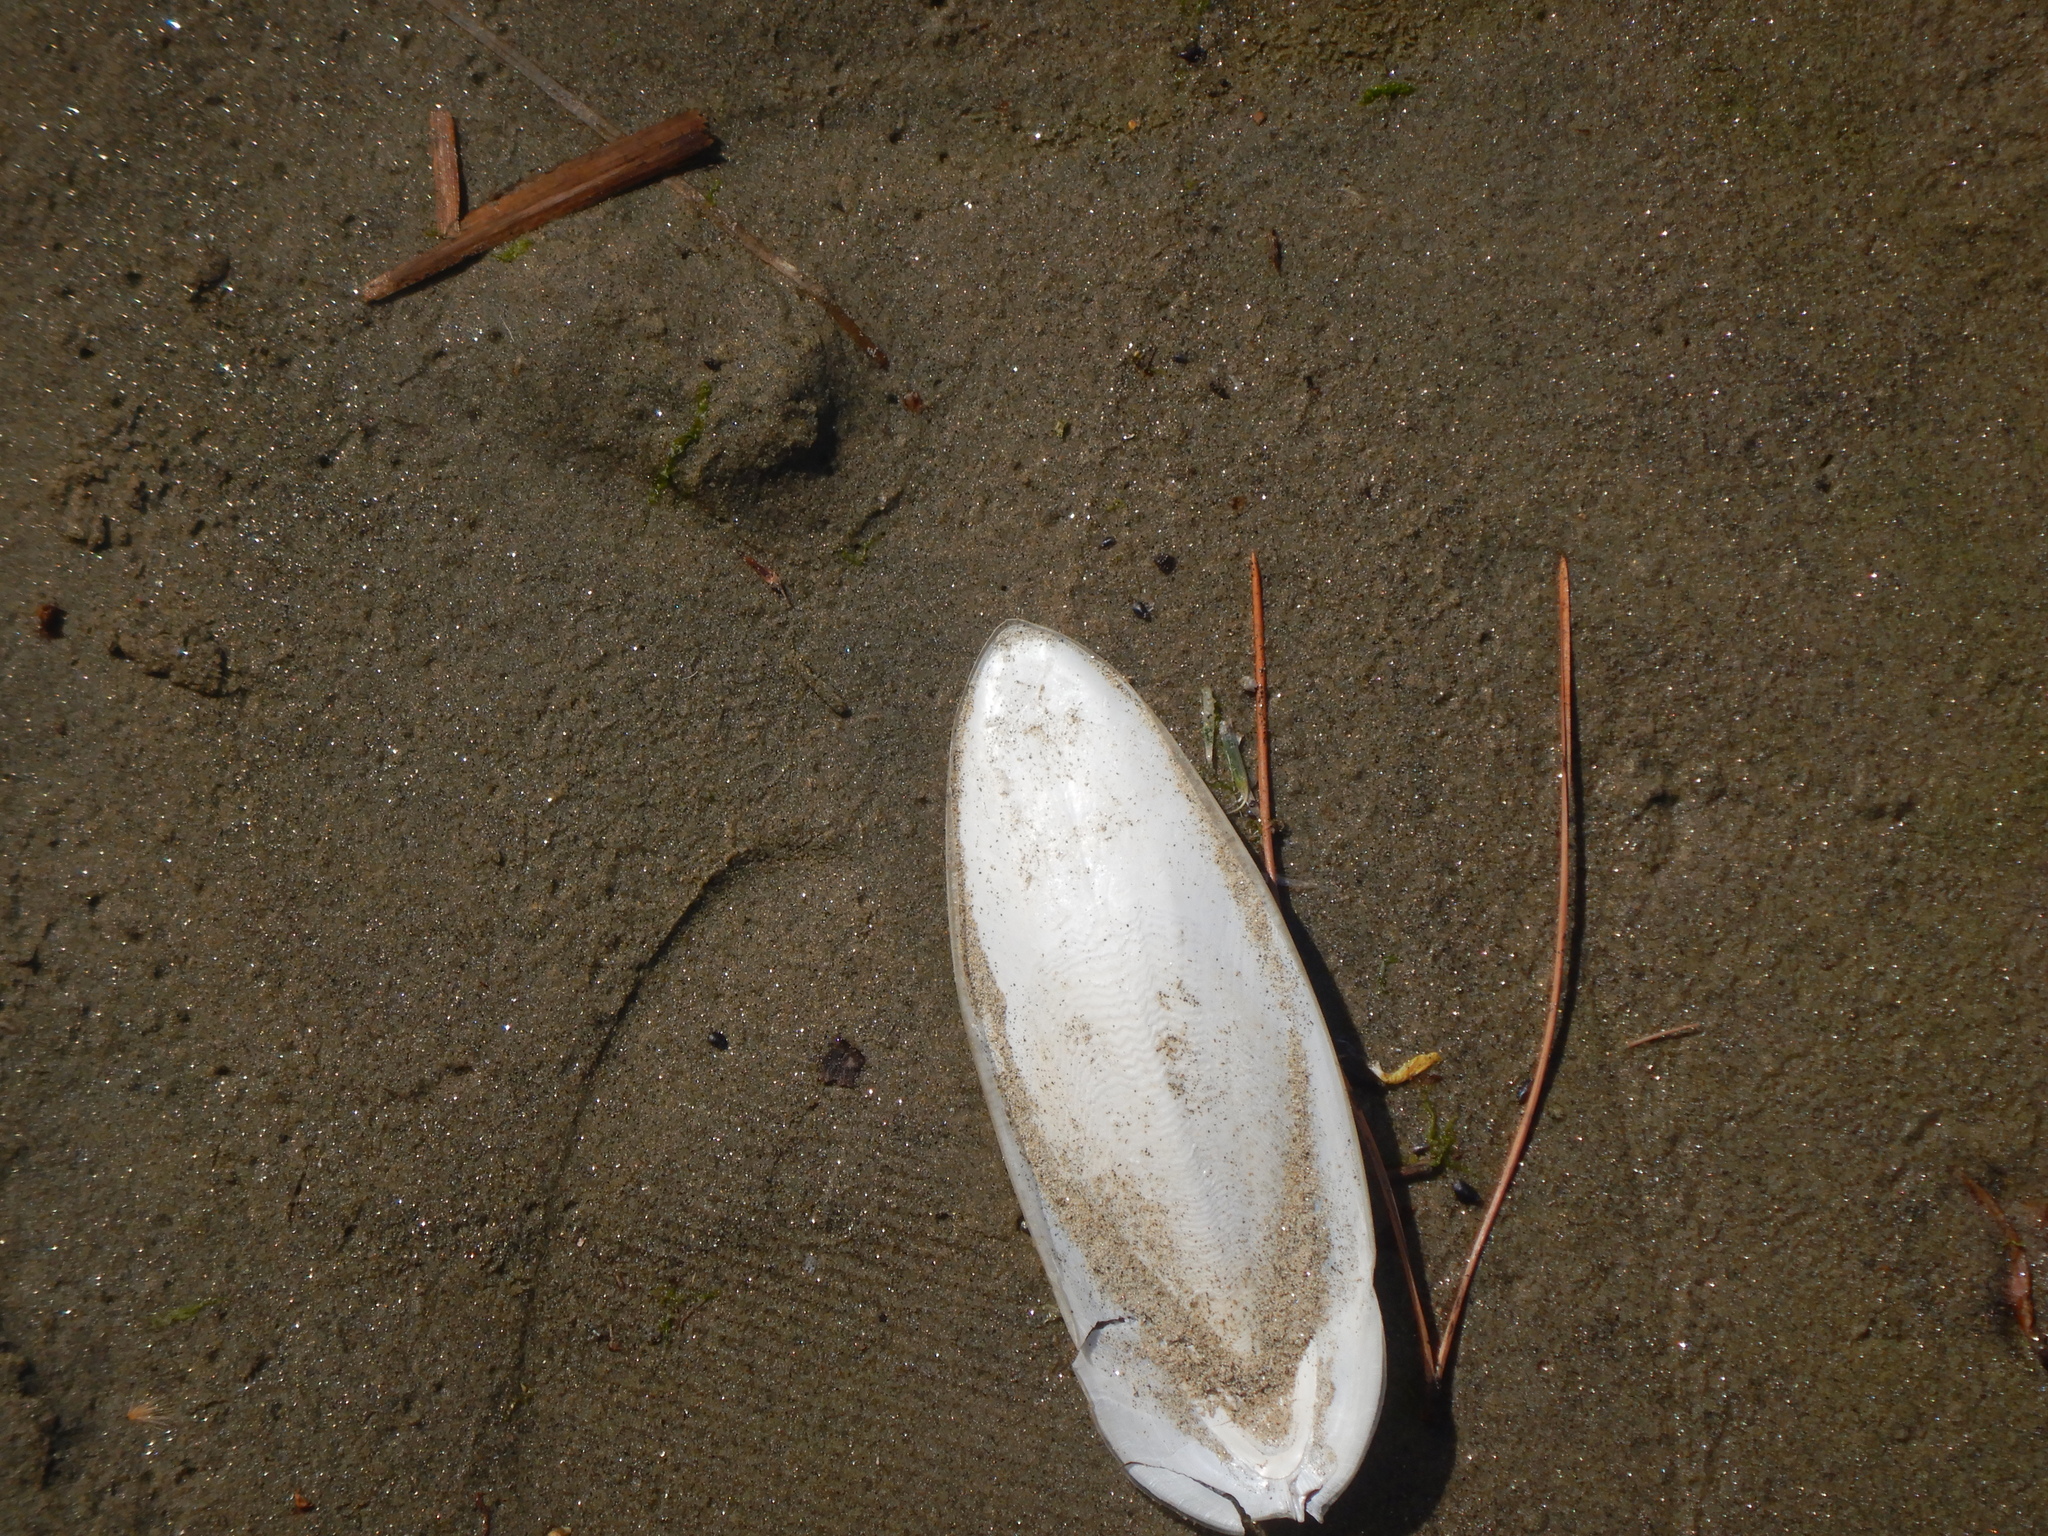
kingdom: Animalia
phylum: Mollusca
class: Cephalopoda
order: Sepiida
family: Sepiidae
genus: Sepia
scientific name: Sepia officinalis
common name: Common cuttlefish
